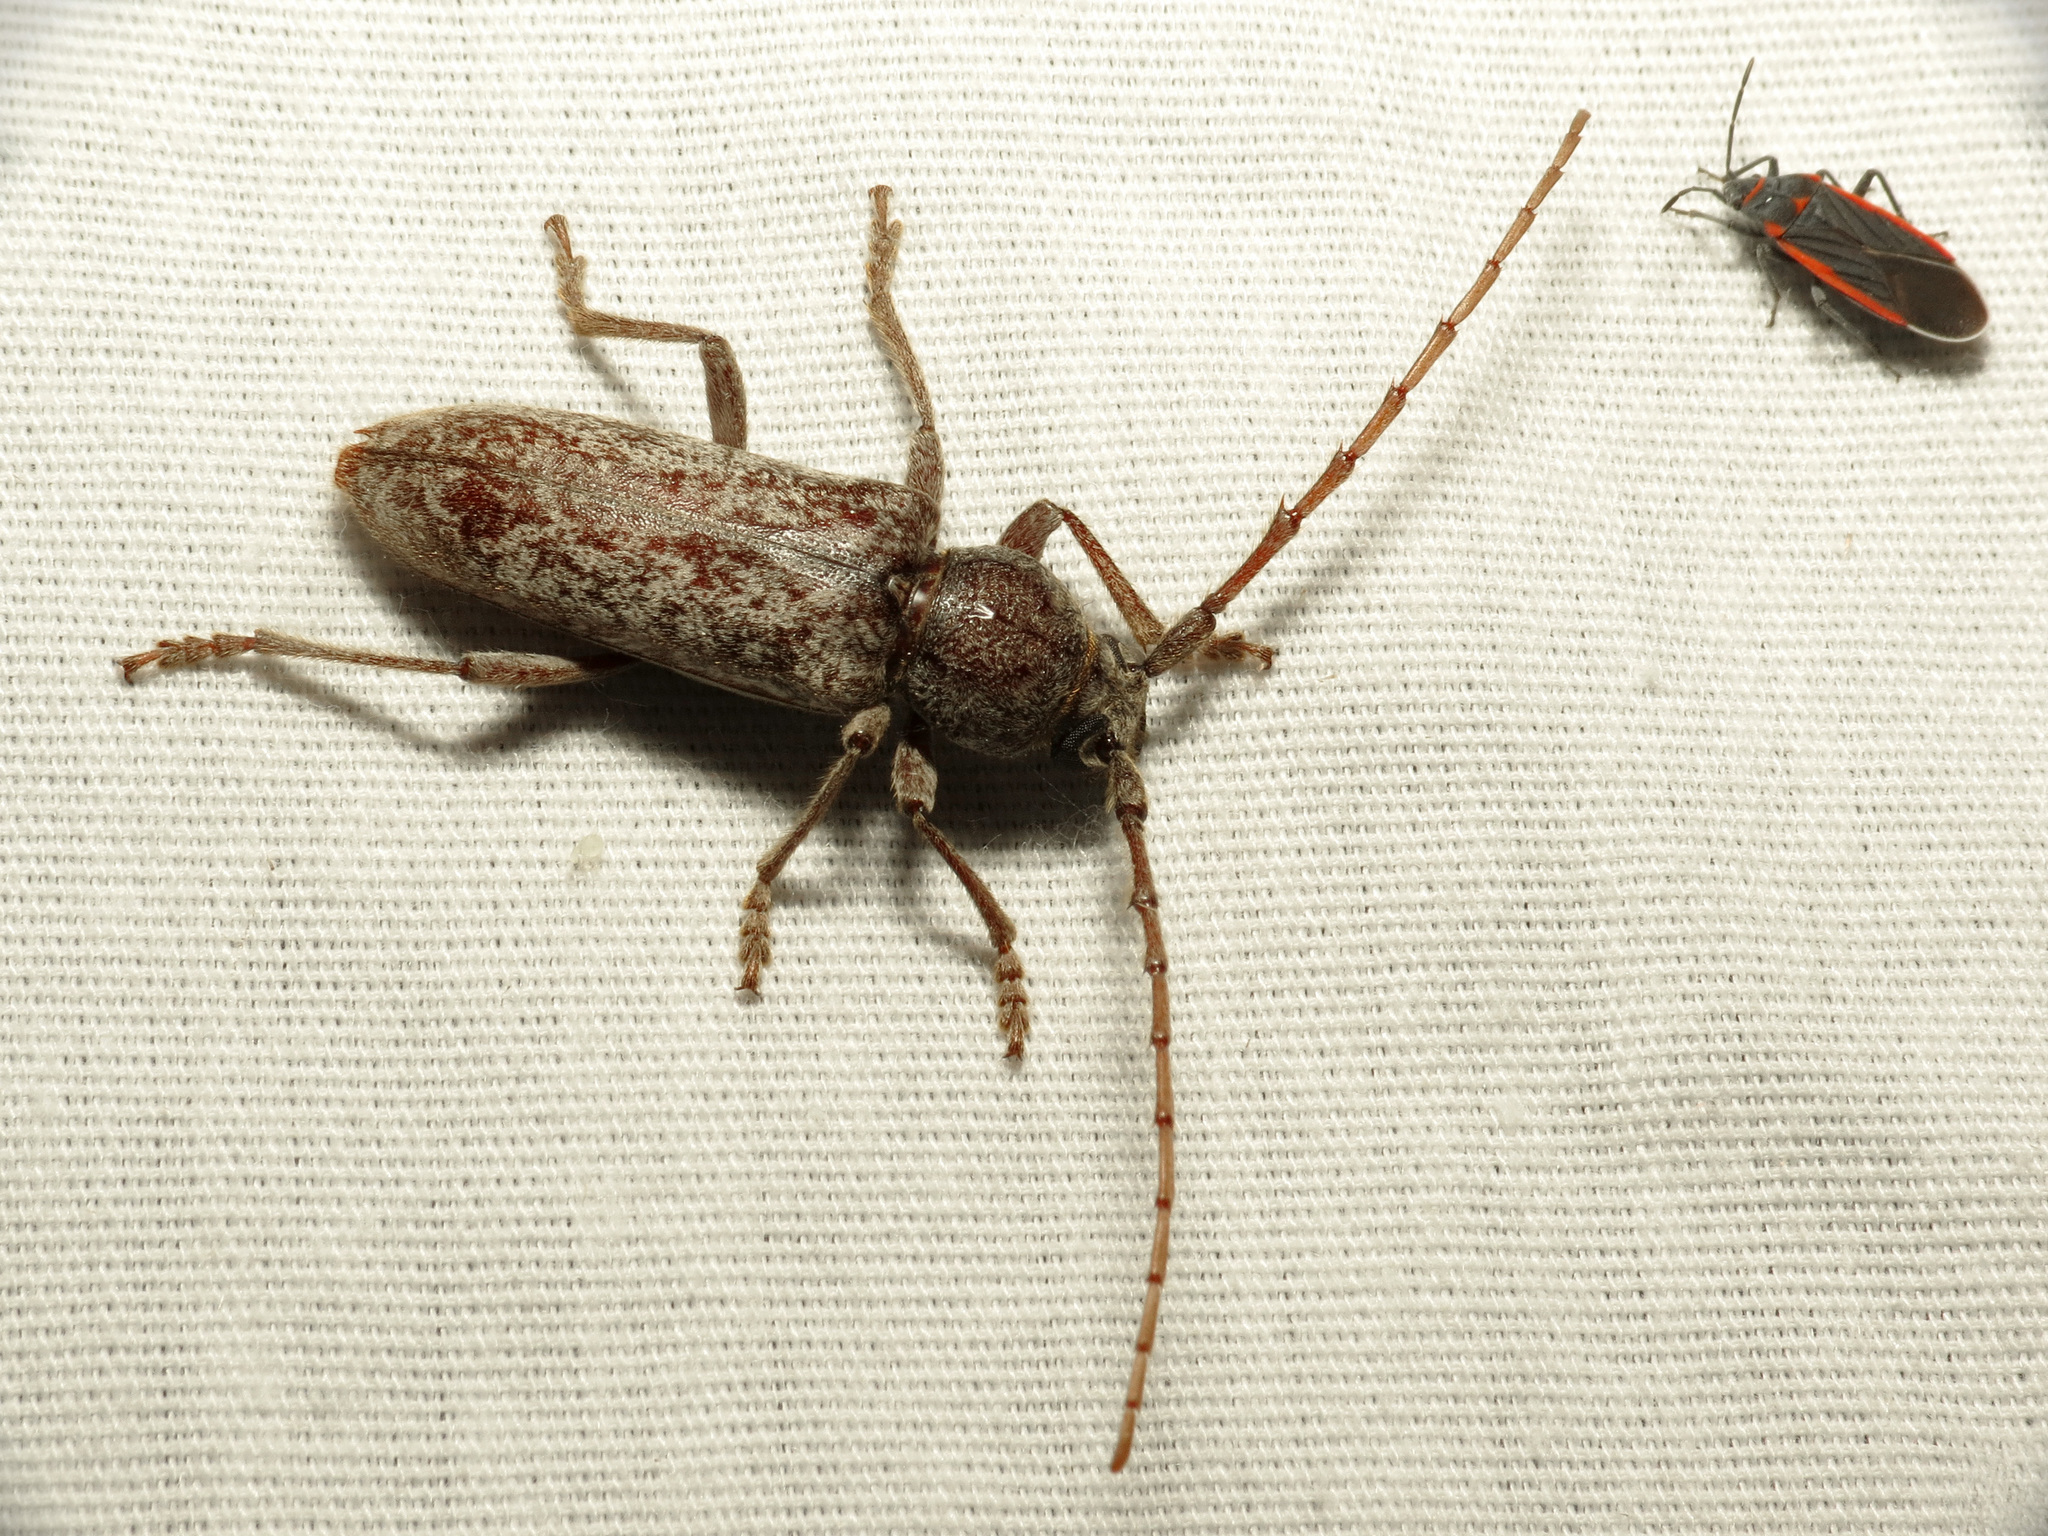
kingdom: Animalia
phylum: Arthropoda
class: Insecta
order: Coleoptera
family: Cerambycidae
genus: Enaphalodes
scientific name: Enaphalodes cortiphagus
